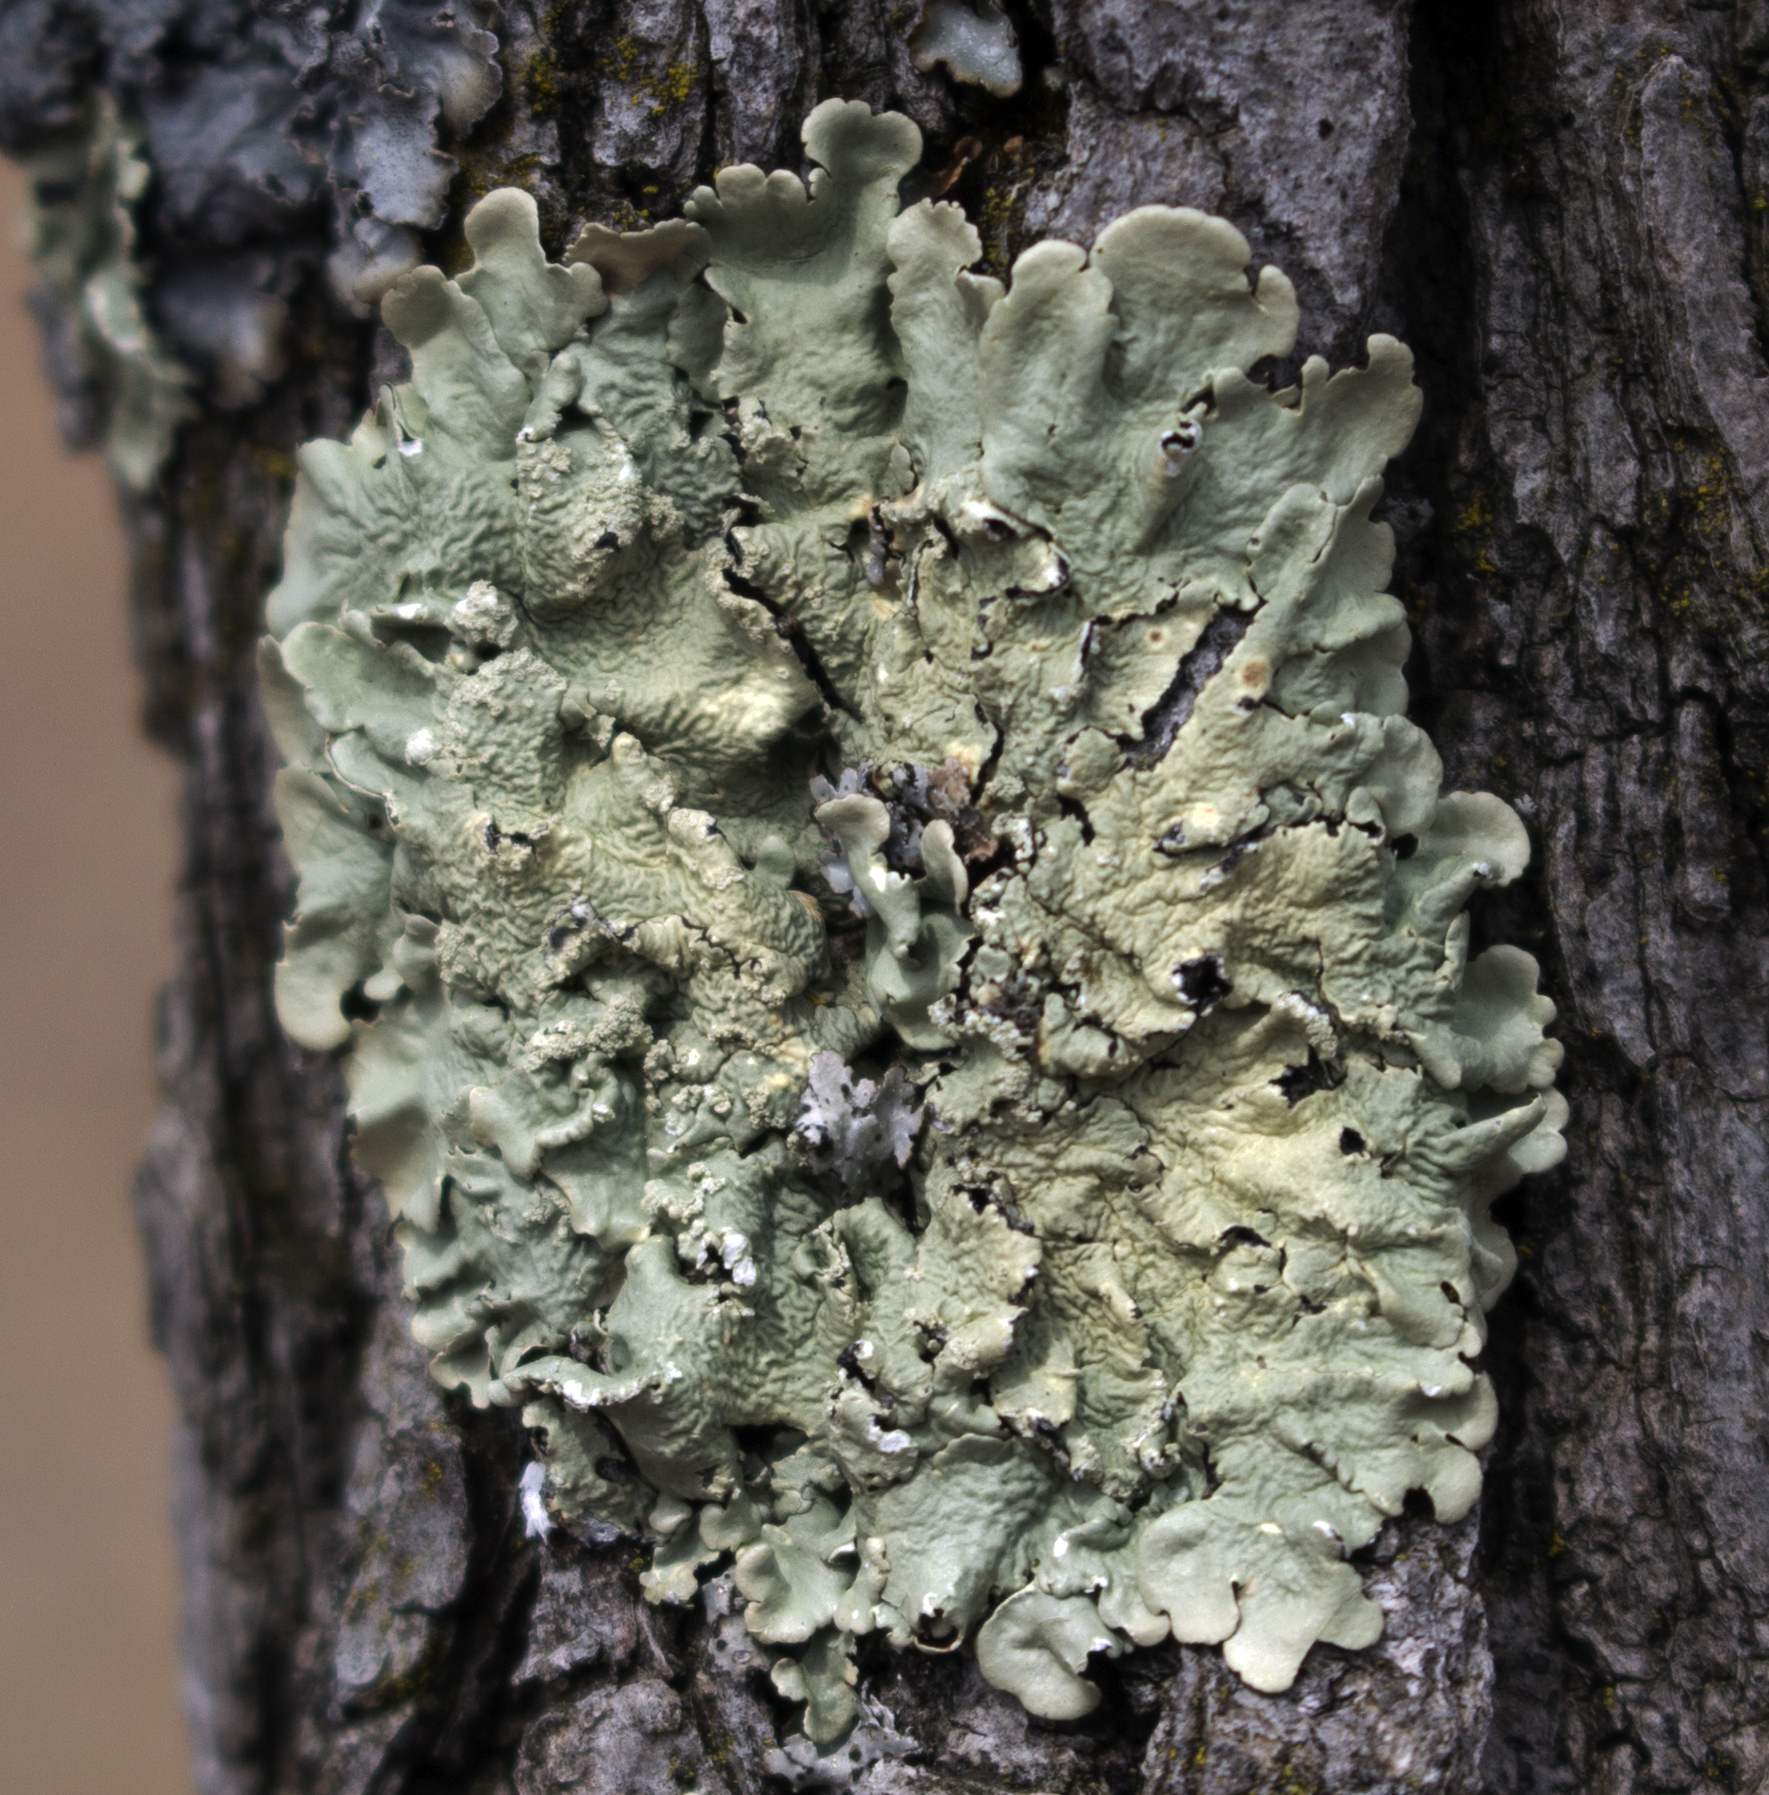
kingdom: Fungi
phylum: Ascomycota
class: Lecanoromycetes
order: Lecanorales
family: Parmeliaceae
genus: Flavoparmelia
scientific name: Flavoparmelia caperata
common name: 40-mile per hour lichen
